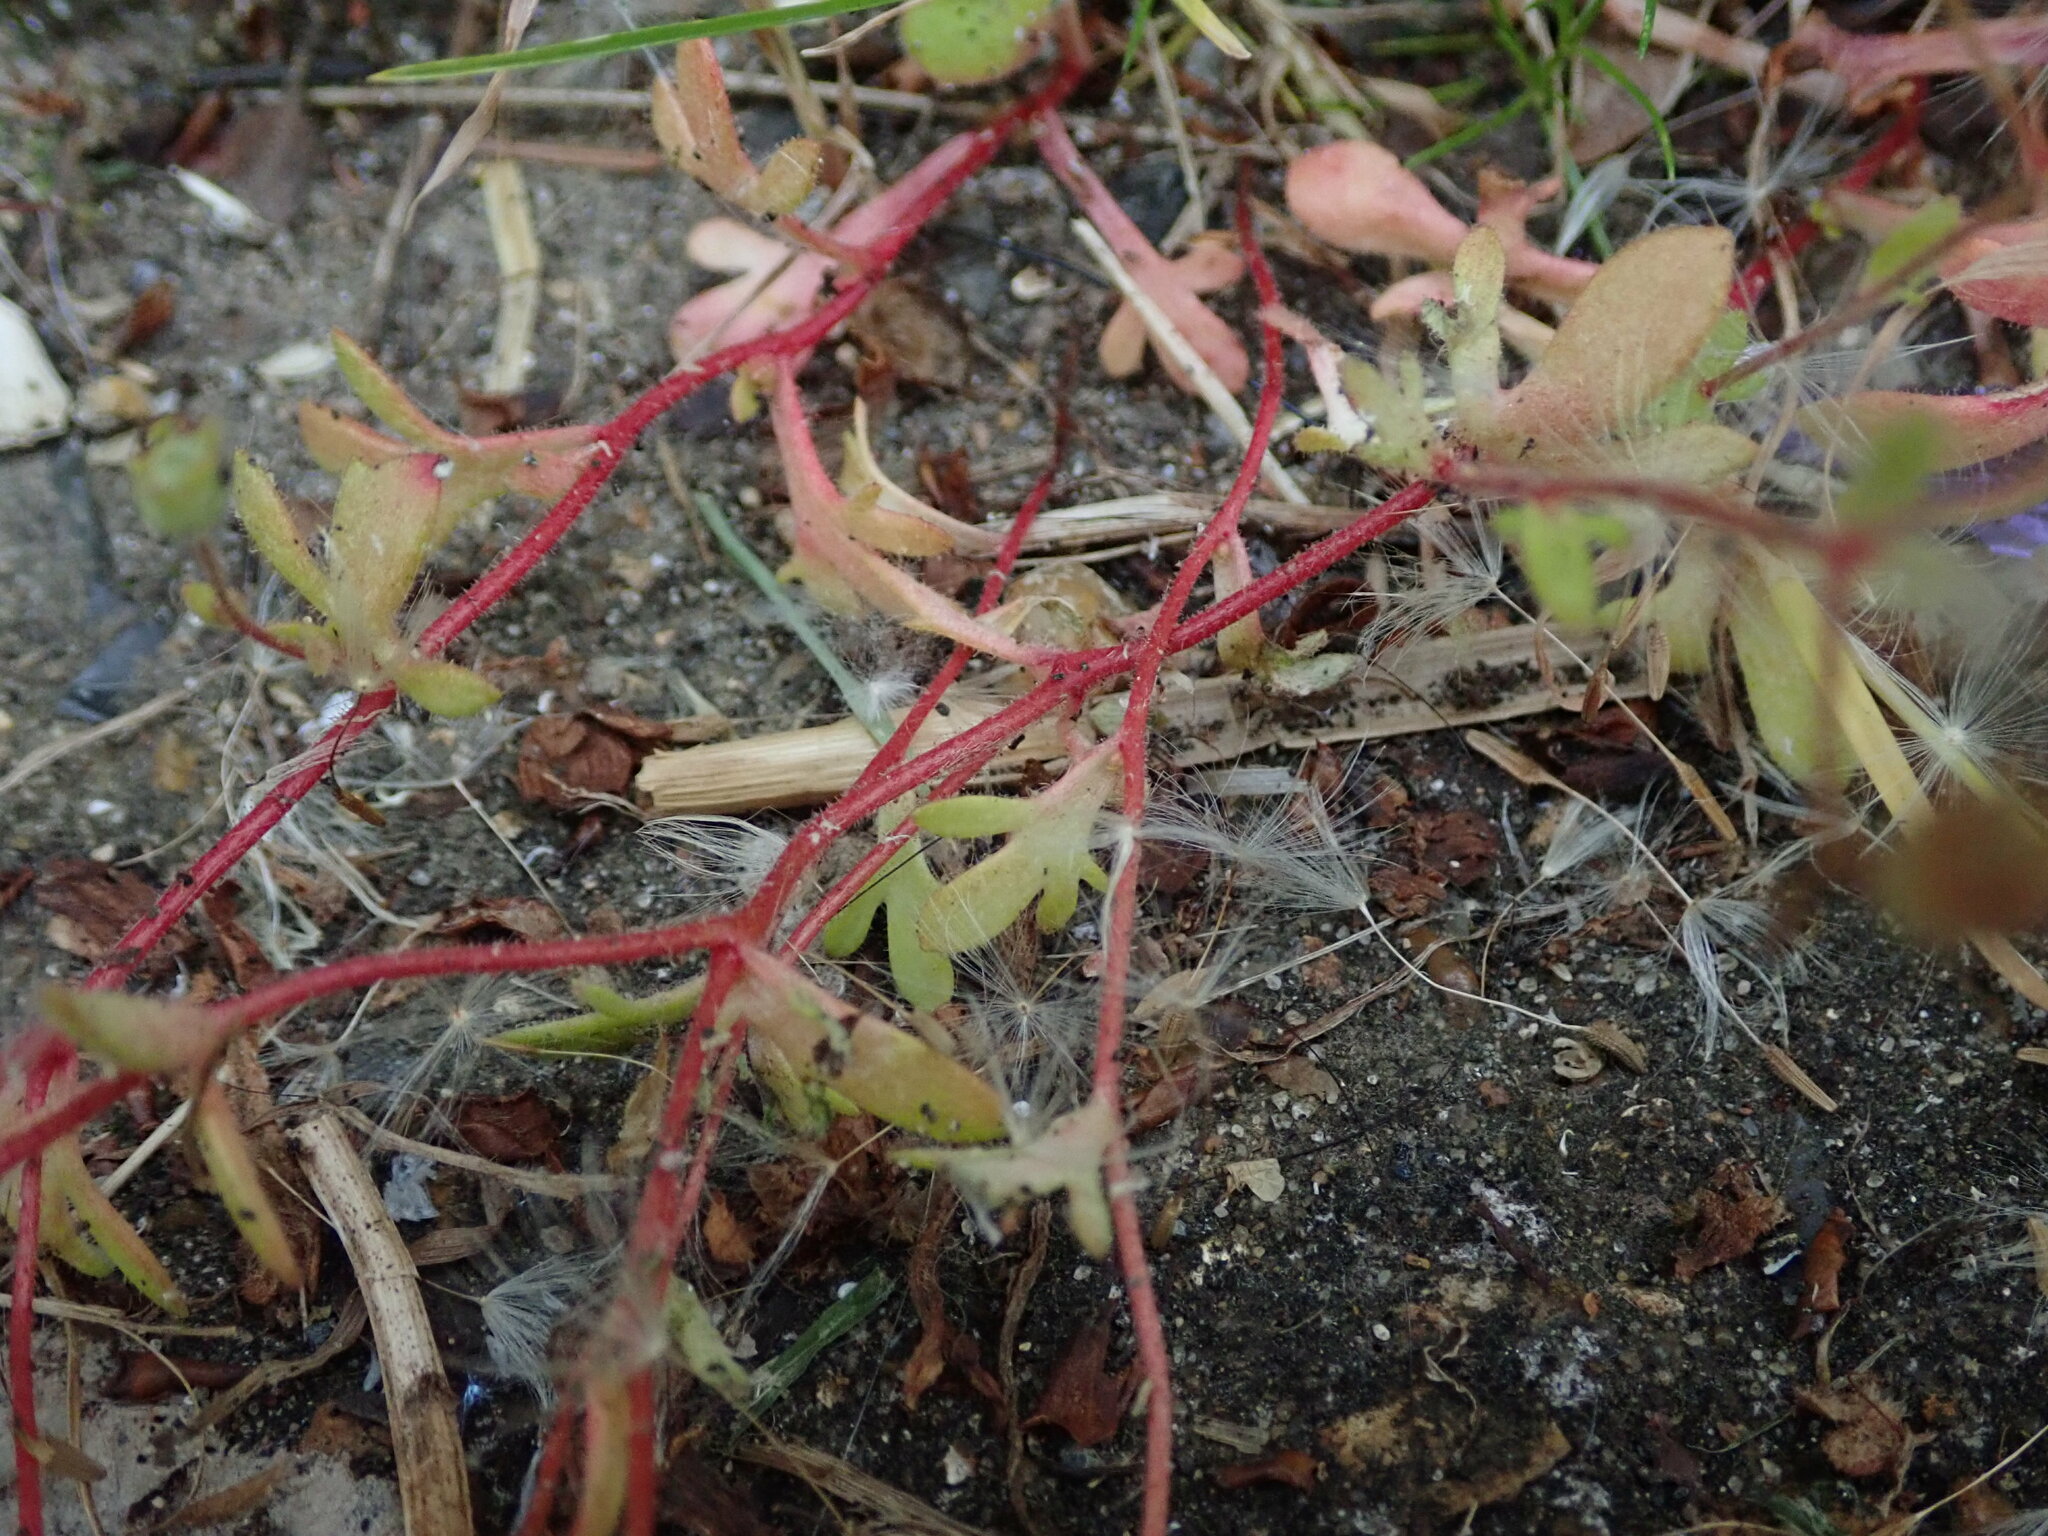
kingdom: Plantae
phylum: Tracheophyta
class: Magnoliopsida
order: Saxifragales
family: Saxifragaceae
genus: Saxifraga
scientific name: Saxifraga tridactylites
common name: Rue-leaved saxifrage
